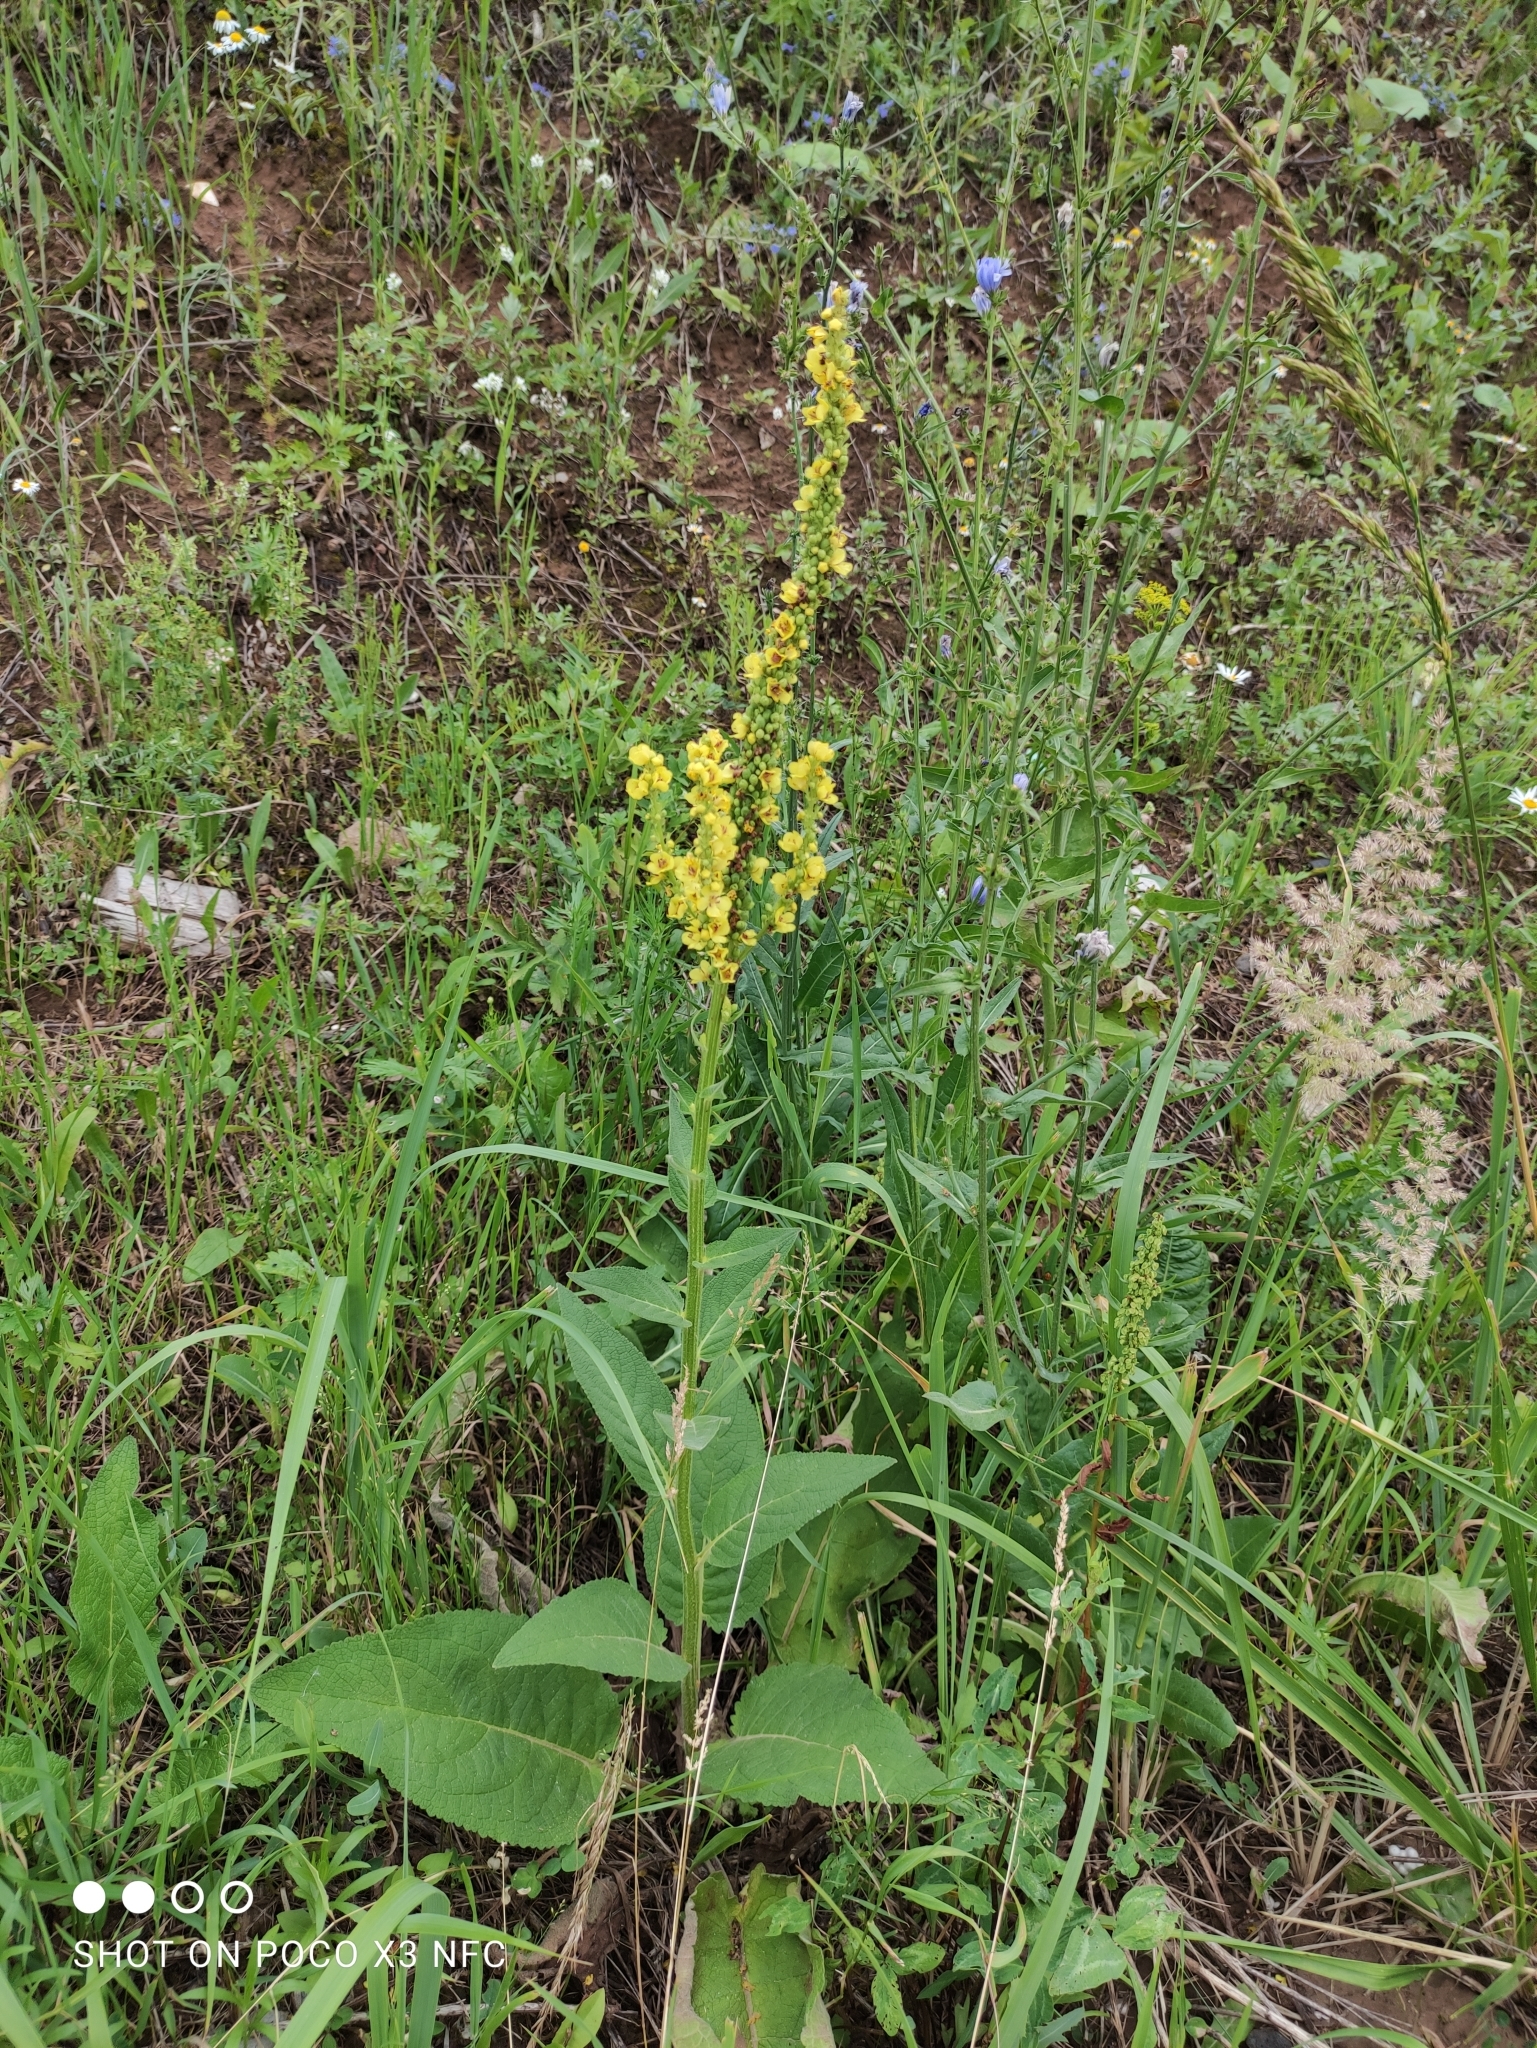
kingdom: Plantae
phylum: Tracheophyta
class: Magnoliopsida
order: Lamiales
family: Scrophulariaceae
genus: Verbascum
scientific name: Verbascum nigrum
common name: Dark mullein
